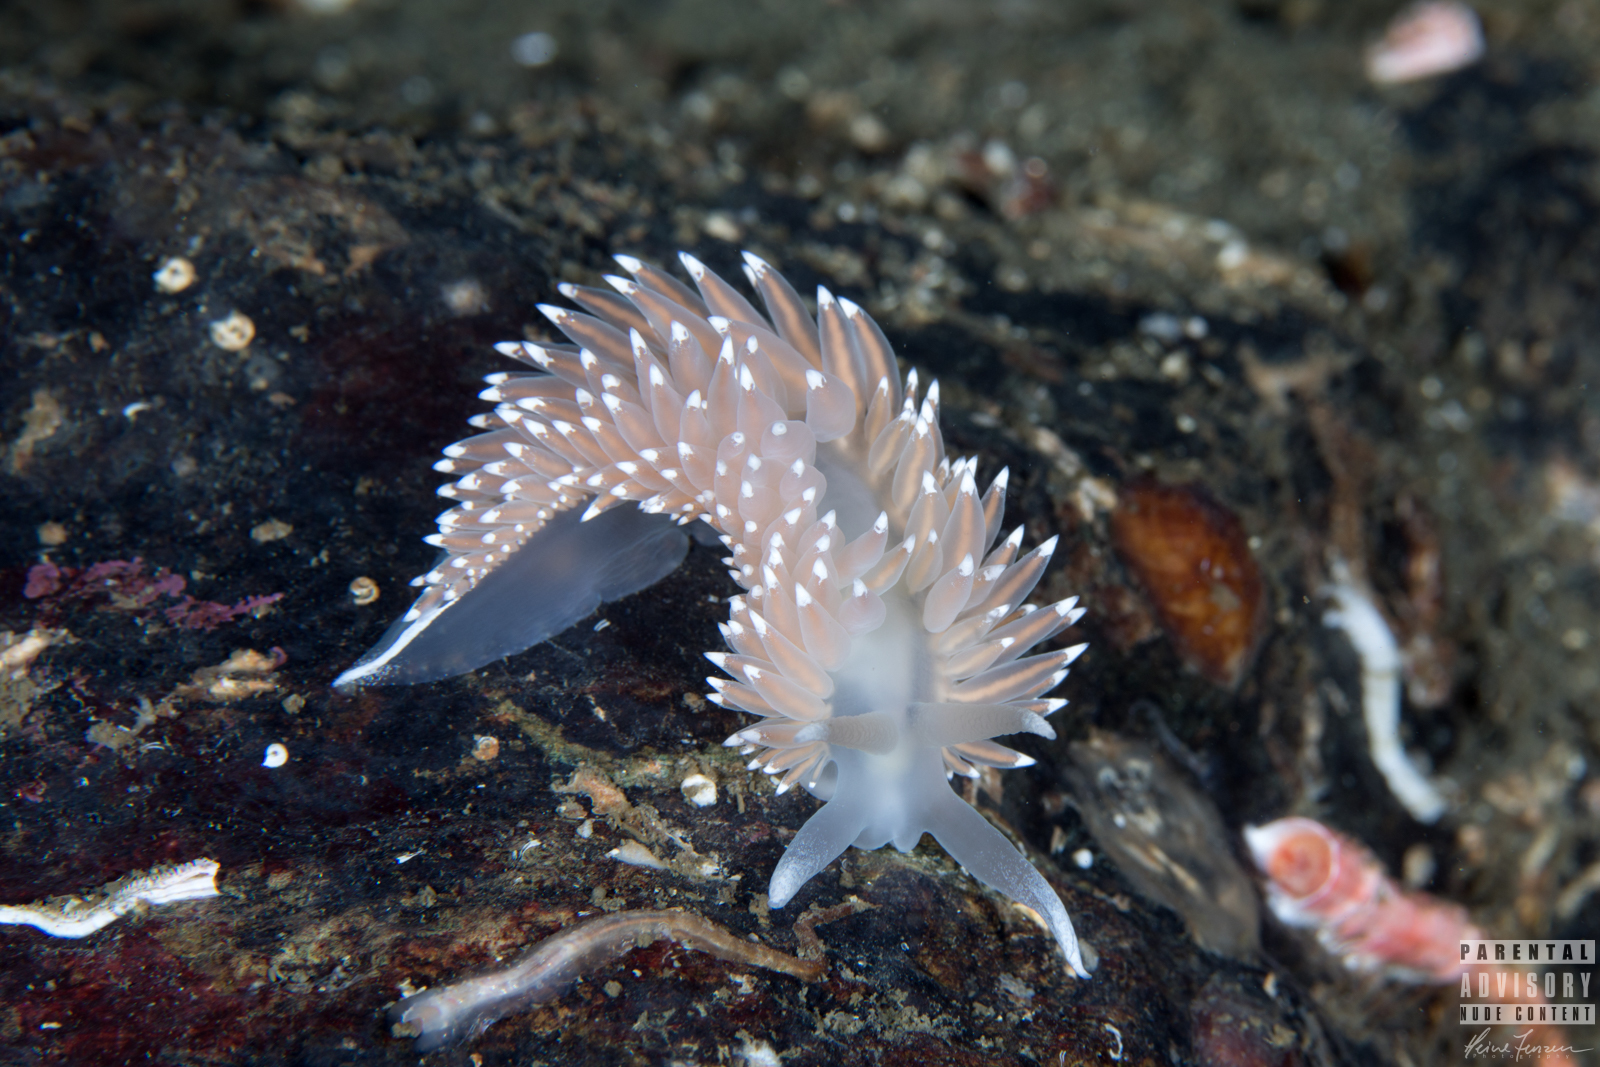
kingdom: Animalia
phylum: Mollusca
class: Gastropoda
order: Nudibranchia
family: Coryphellidae
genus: Coryphella
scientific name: Coryphella nobilis
